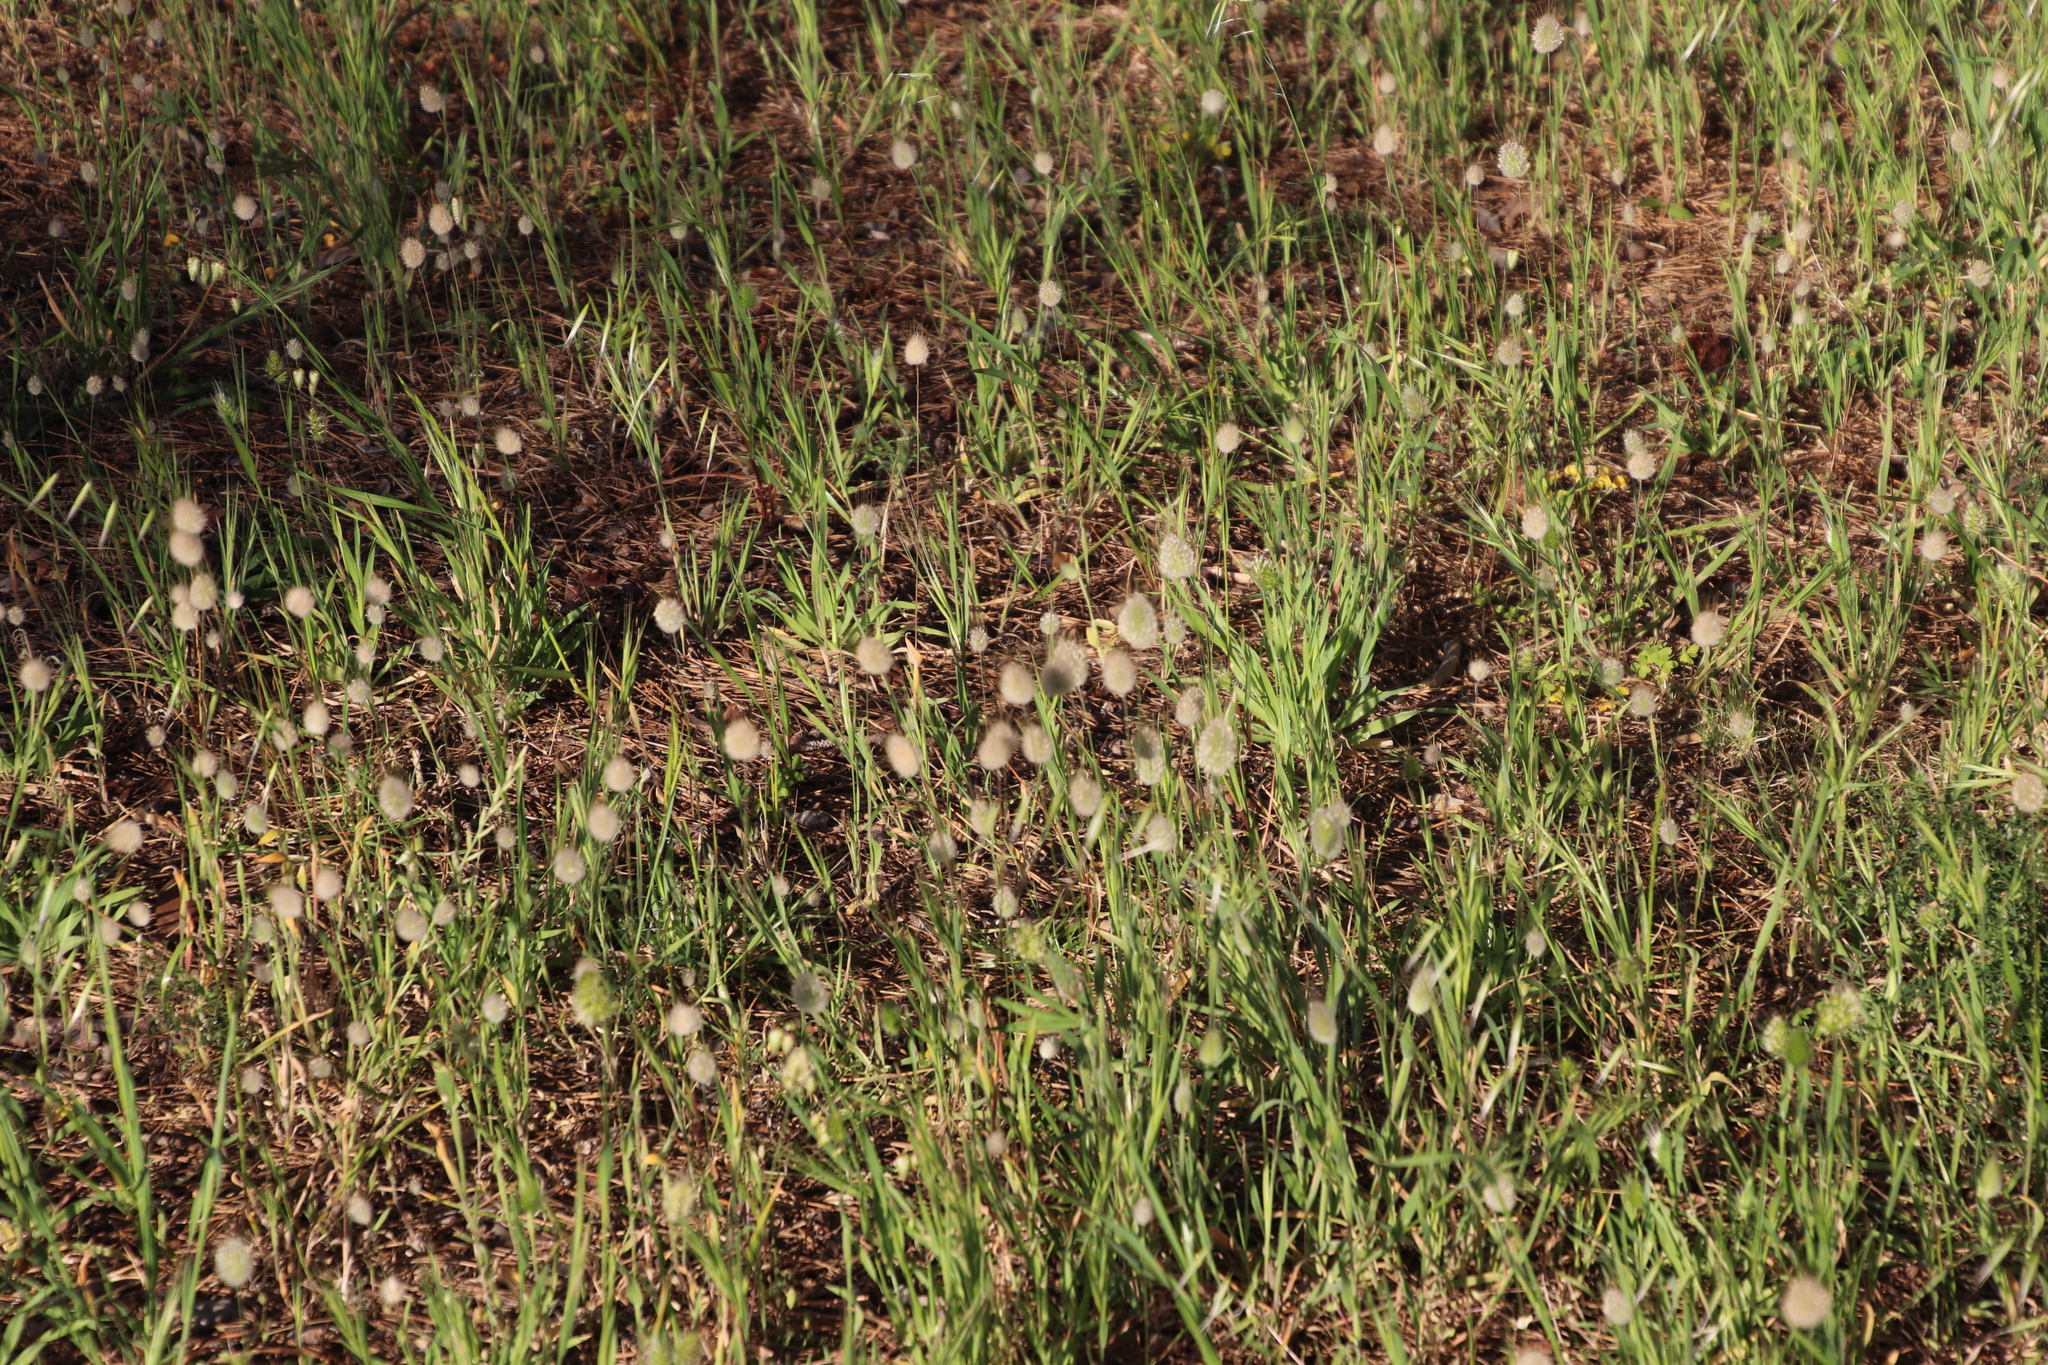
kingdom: Plantae
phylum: Tracheophyta
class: Liliopsida
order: Poales
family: Poaceae
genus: Lagurus
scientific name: Lagurus ovatus
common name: Hare's-tail
